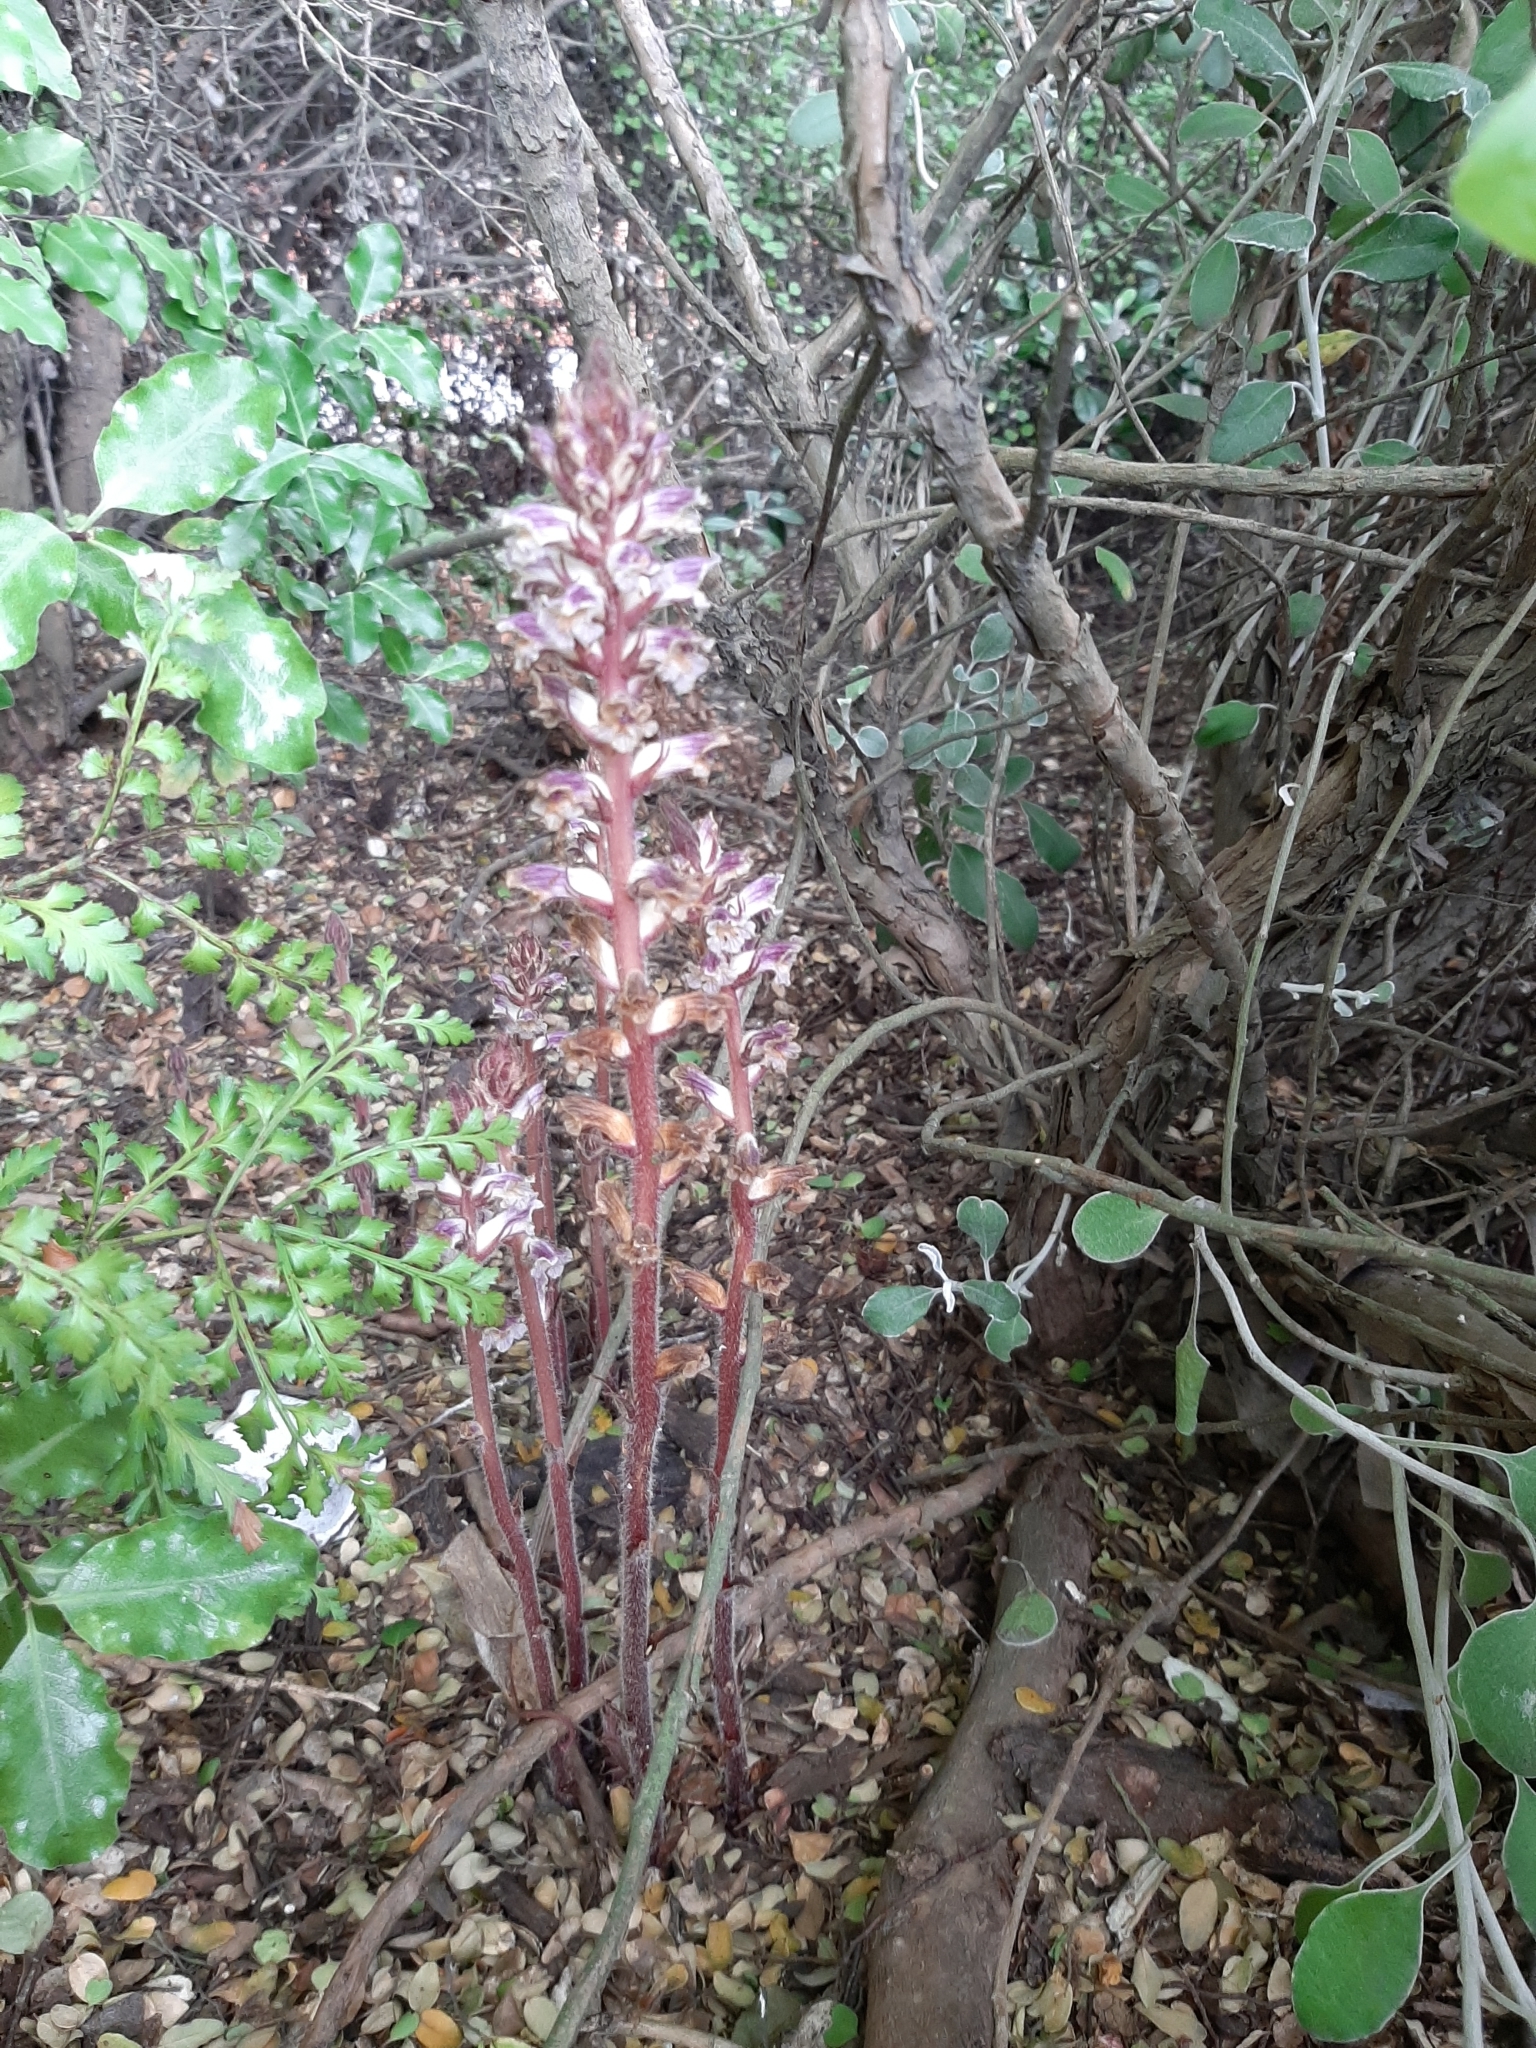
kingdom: Plantae
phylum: Tracheophyta
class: Magnoliopsida
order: Lamiales
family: Orobanchaceae
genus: Orobanche
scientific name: Orobanche minor
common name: Common broomrape
